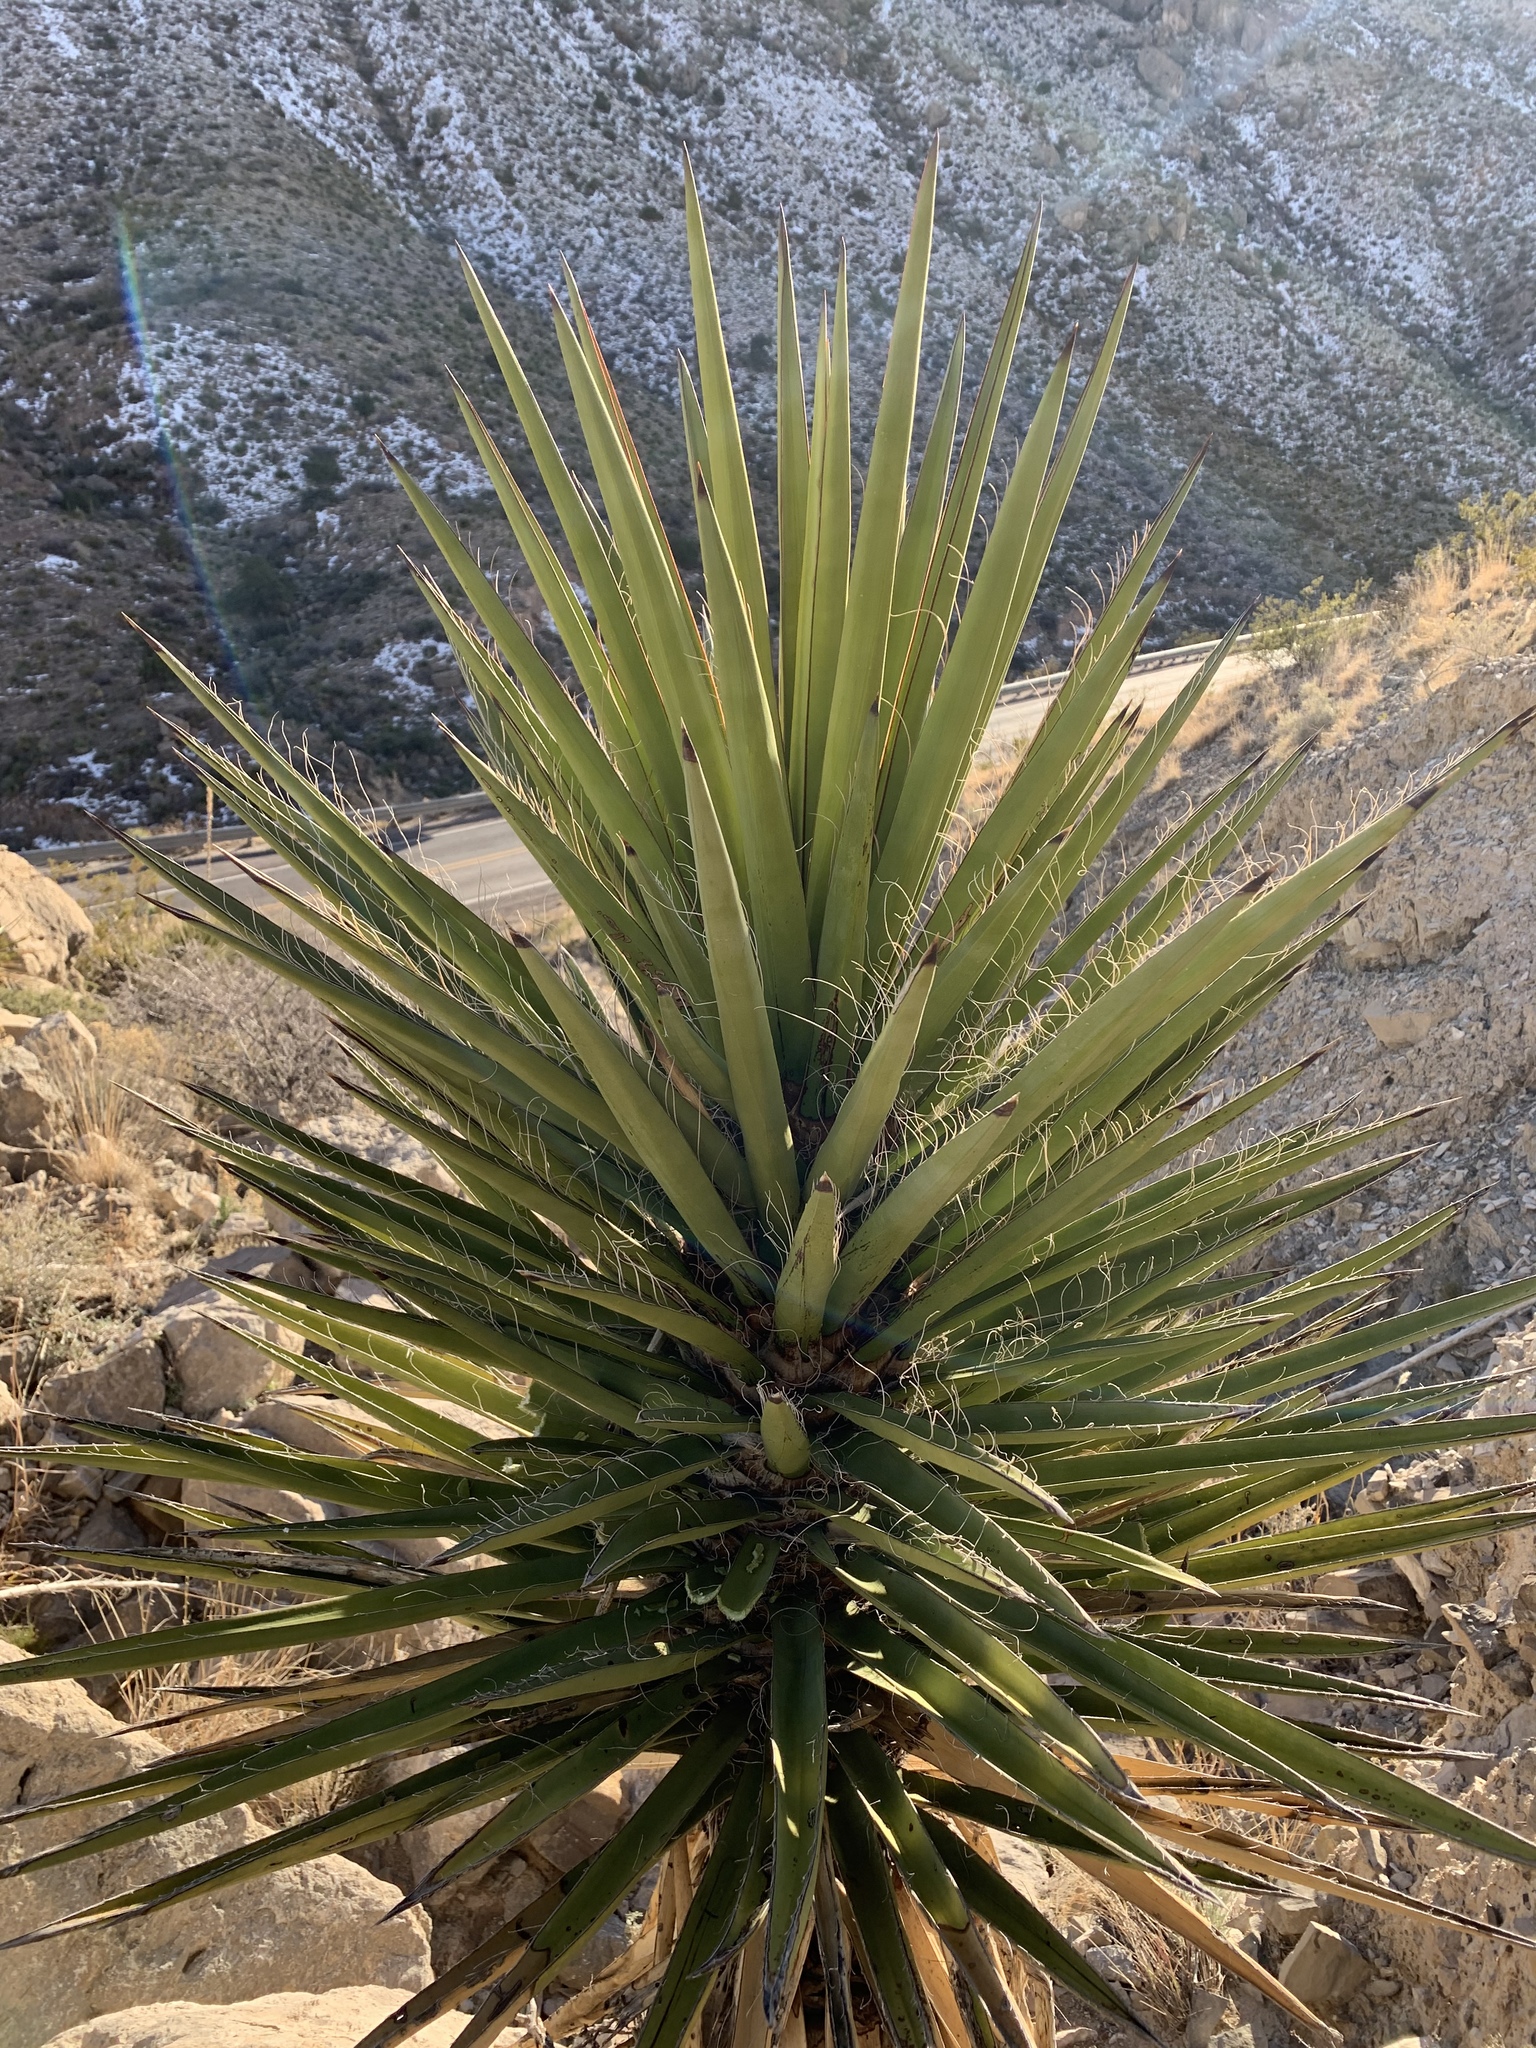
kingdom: Plantae
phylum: Tracheophyta
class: Liliopsida
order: Asparagales
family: Asparagaceae
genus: Yucca
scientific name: Yucca treculiana
